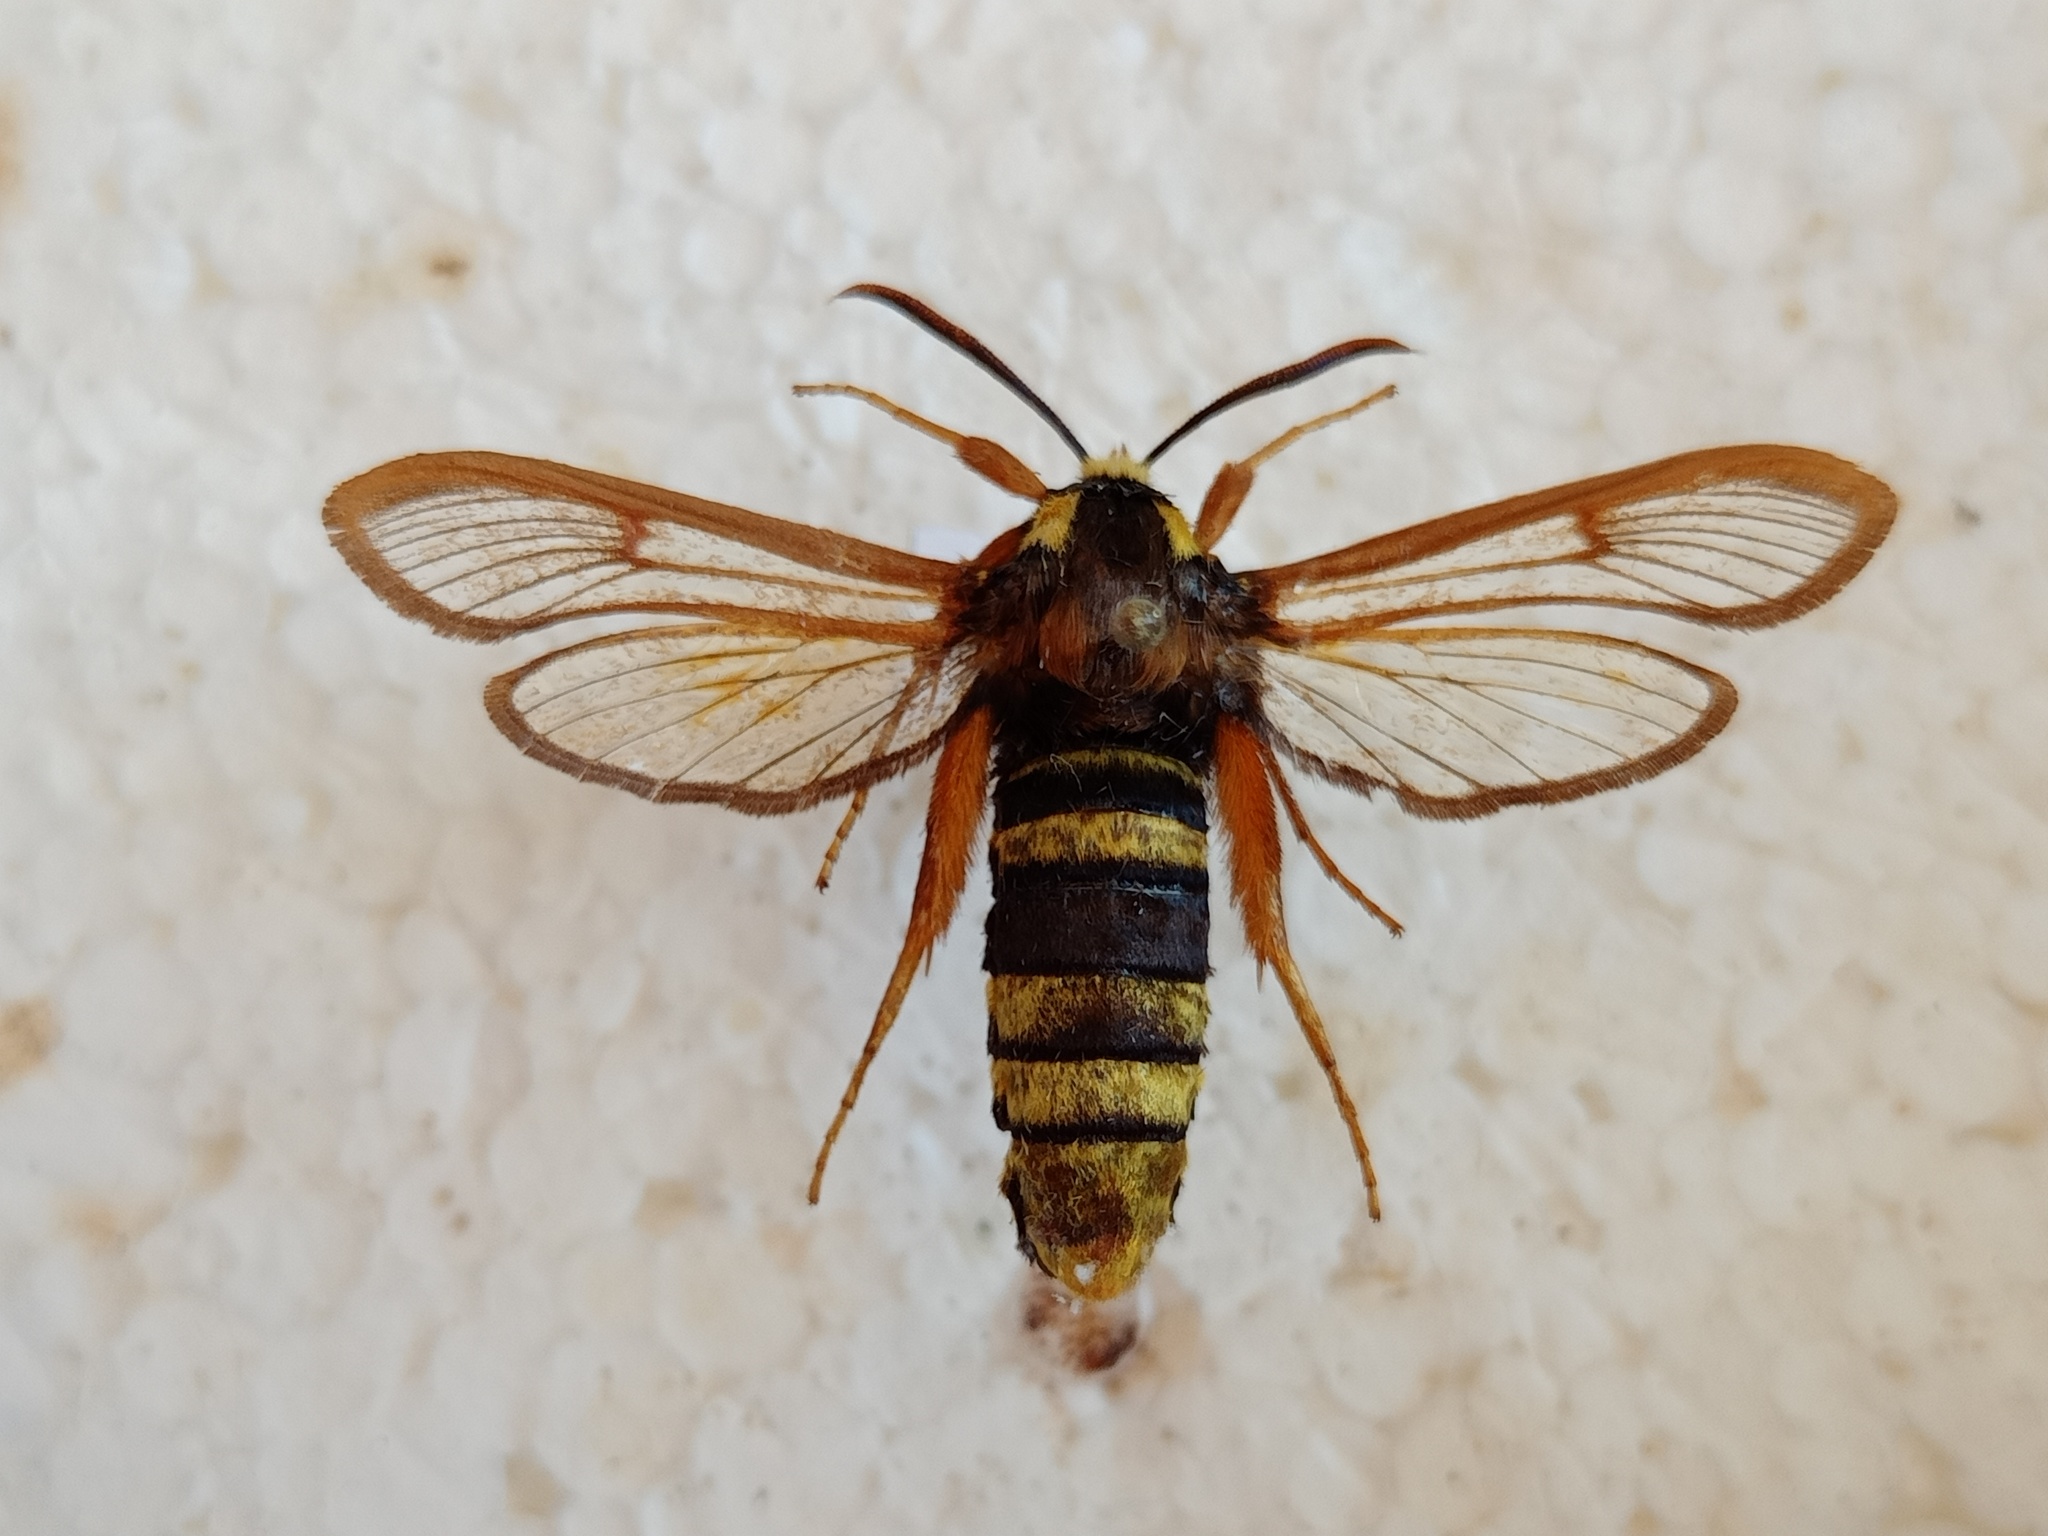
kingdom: Animalia
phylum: Arthropoda
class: Insecta
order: Lepidoptera
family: Sesiidae
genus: Sesia
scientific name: Sesia apiformis
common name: Hornet moth
